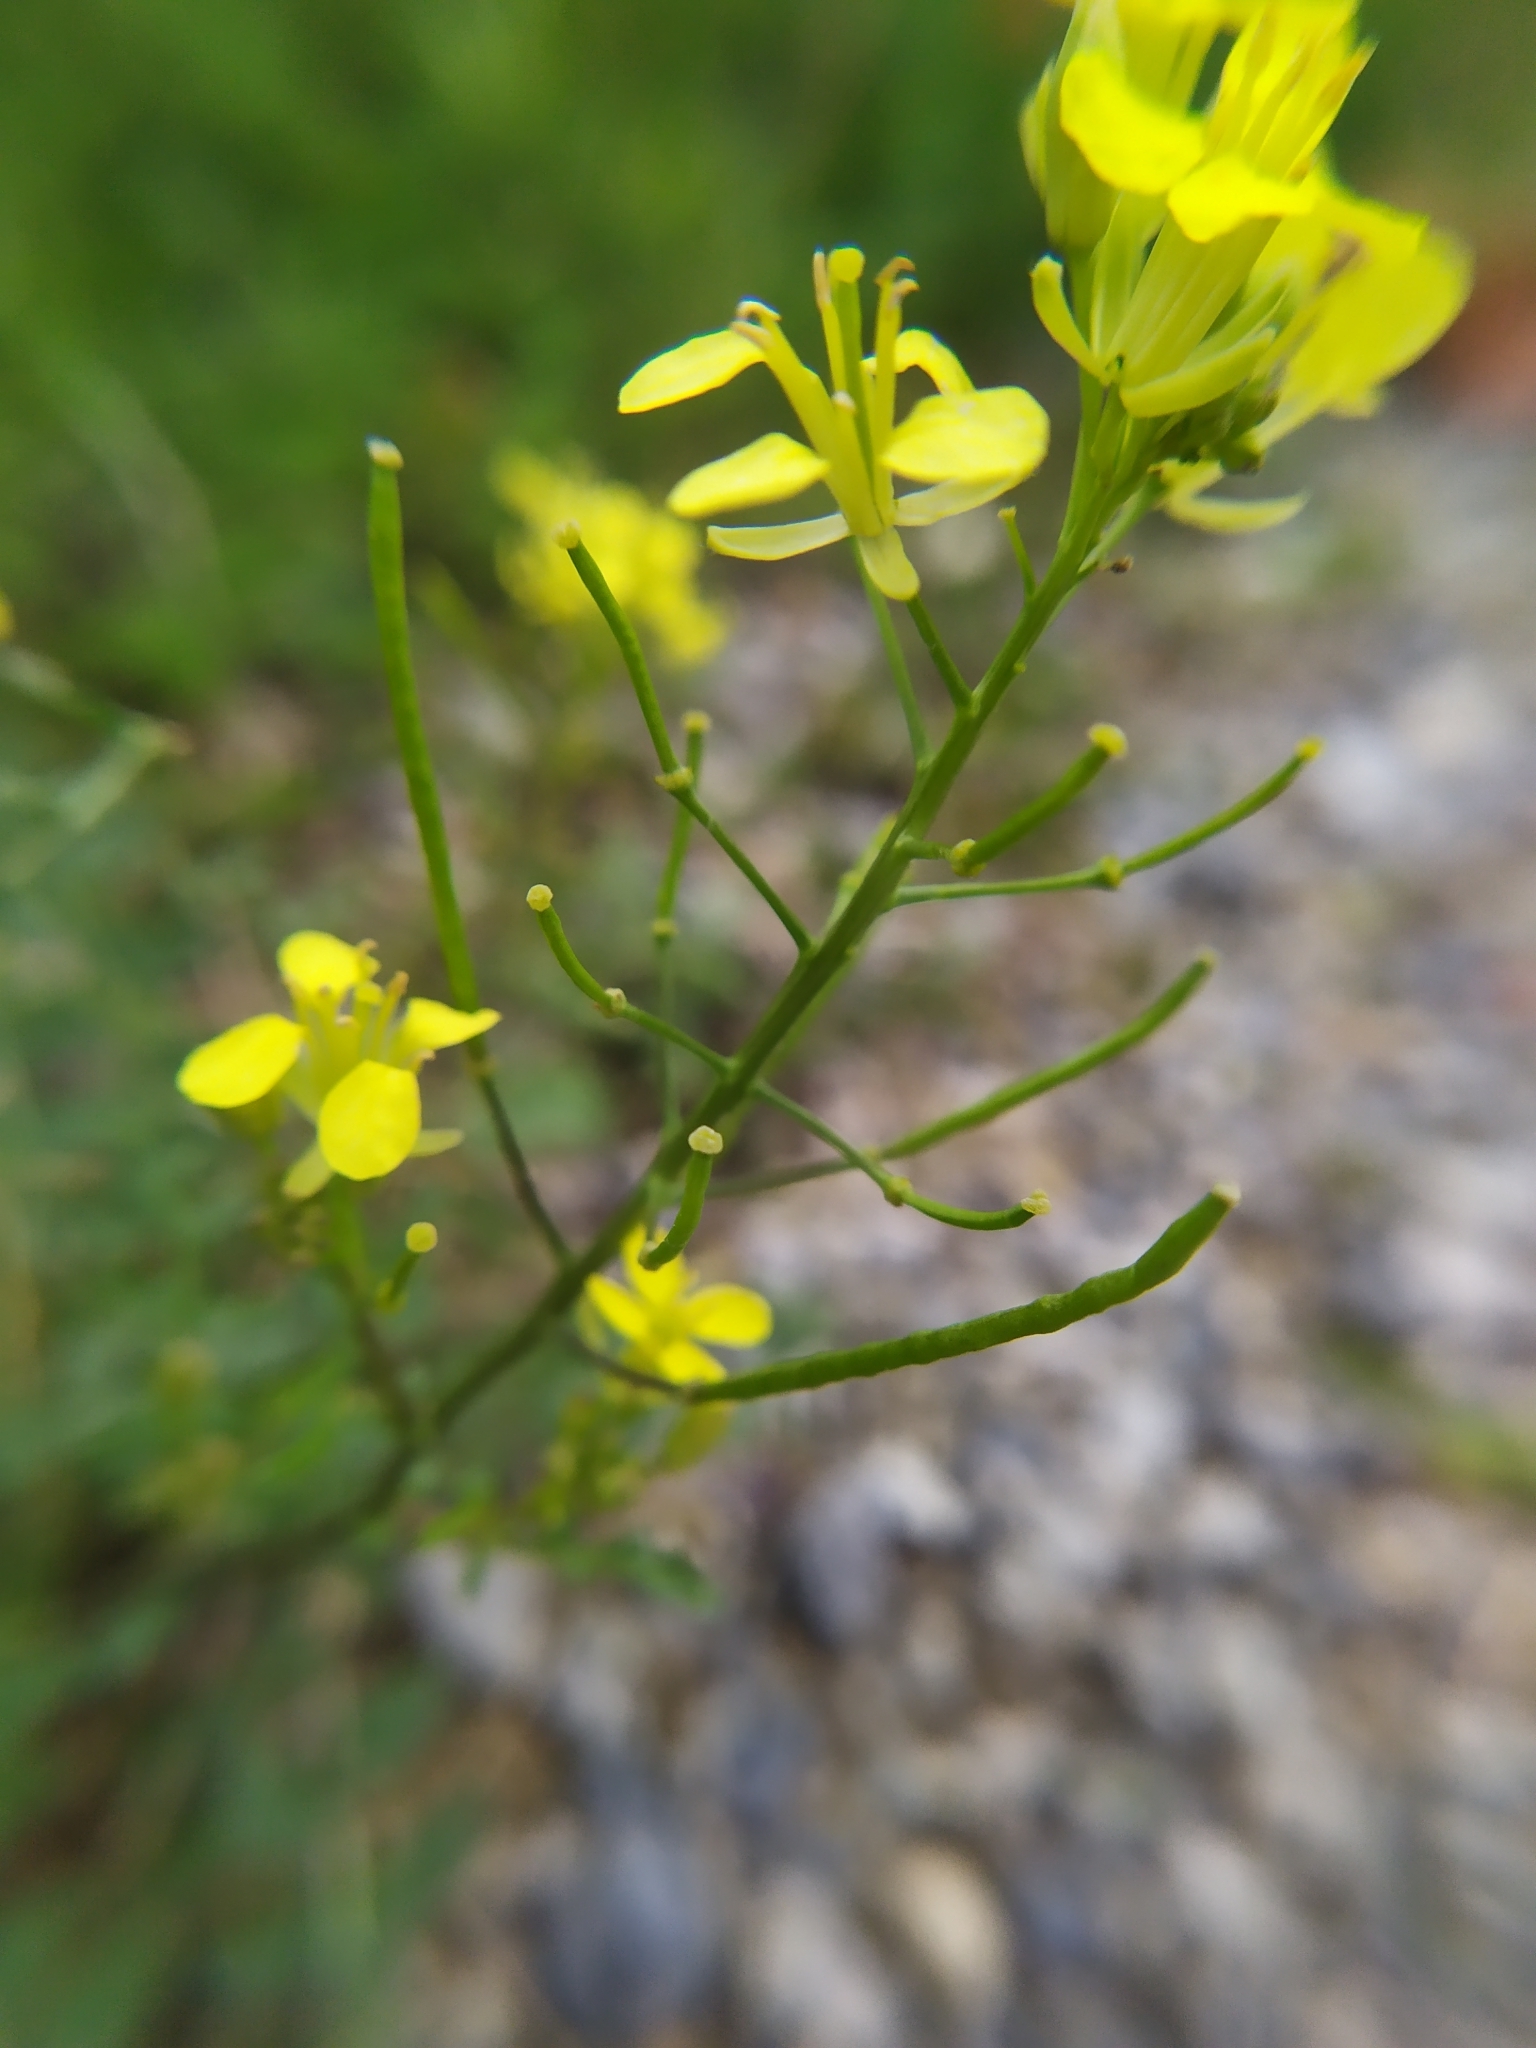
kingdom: Plantae
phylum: Tracheophyta
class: Magnoliopsida
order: Brassicales
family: Brassicaceae
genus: Erucastrum
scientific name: Erucastrum nasturtiifolium
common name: Watercress-leaf rocket
